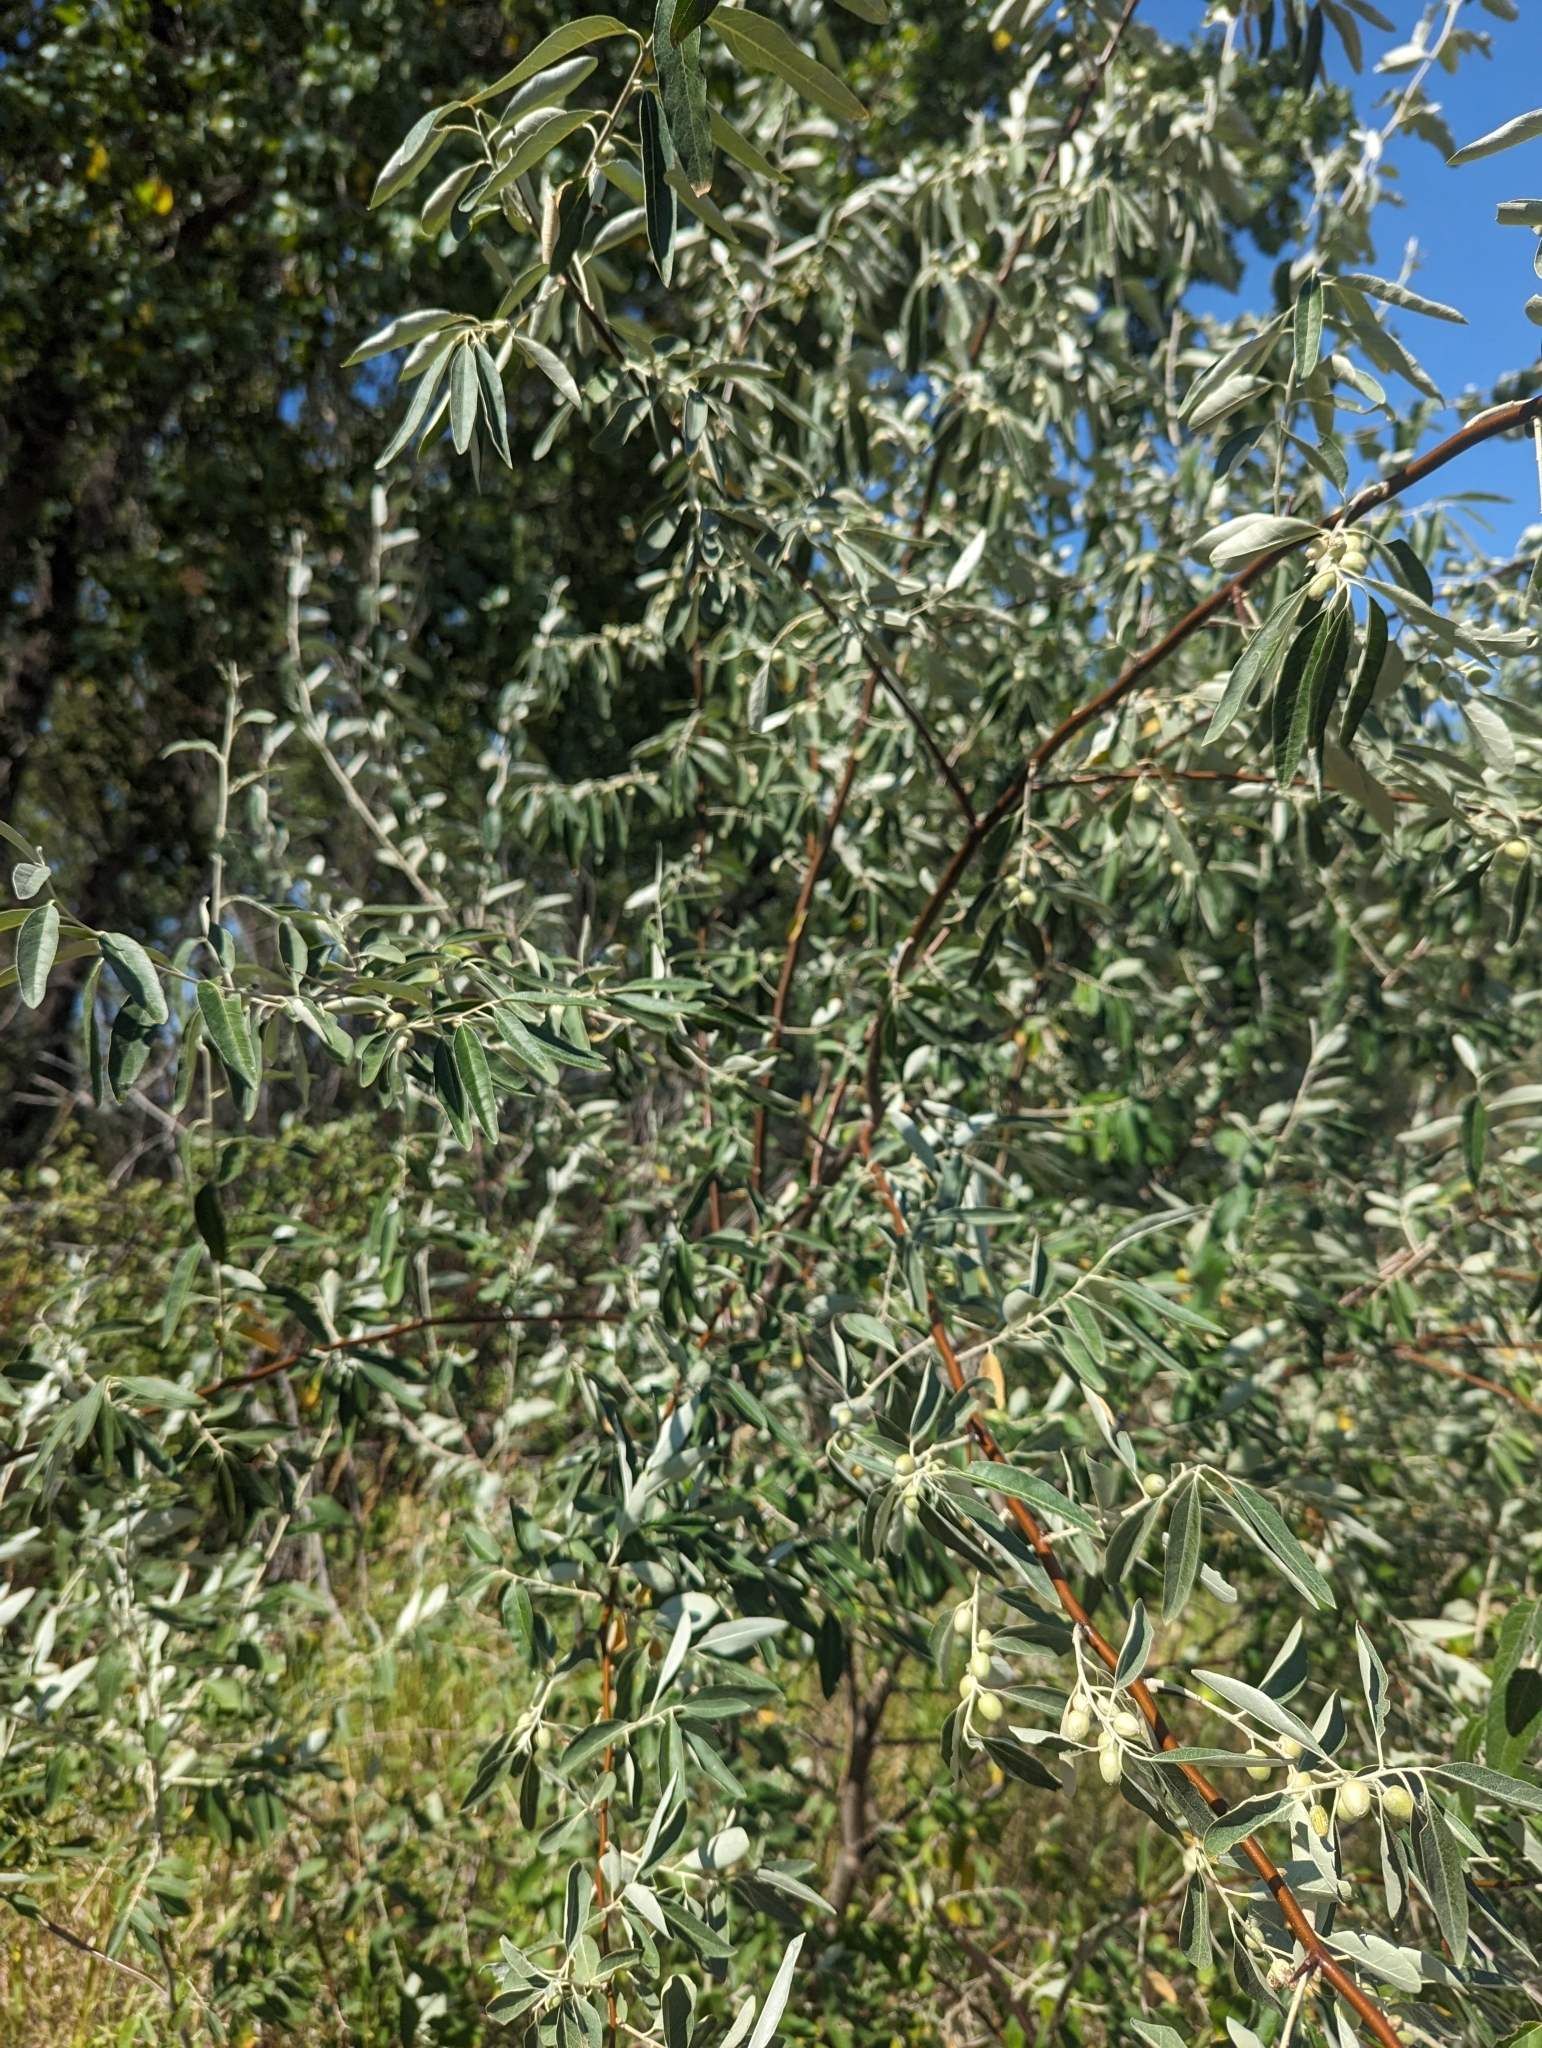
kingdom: Plantae
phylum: Tracheophyta
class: Magnoliopsida
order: Rosales
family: Elaeagnaceae
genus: Elaeagnus
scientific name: Elaeagnus angustifolia
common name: Russian olive
